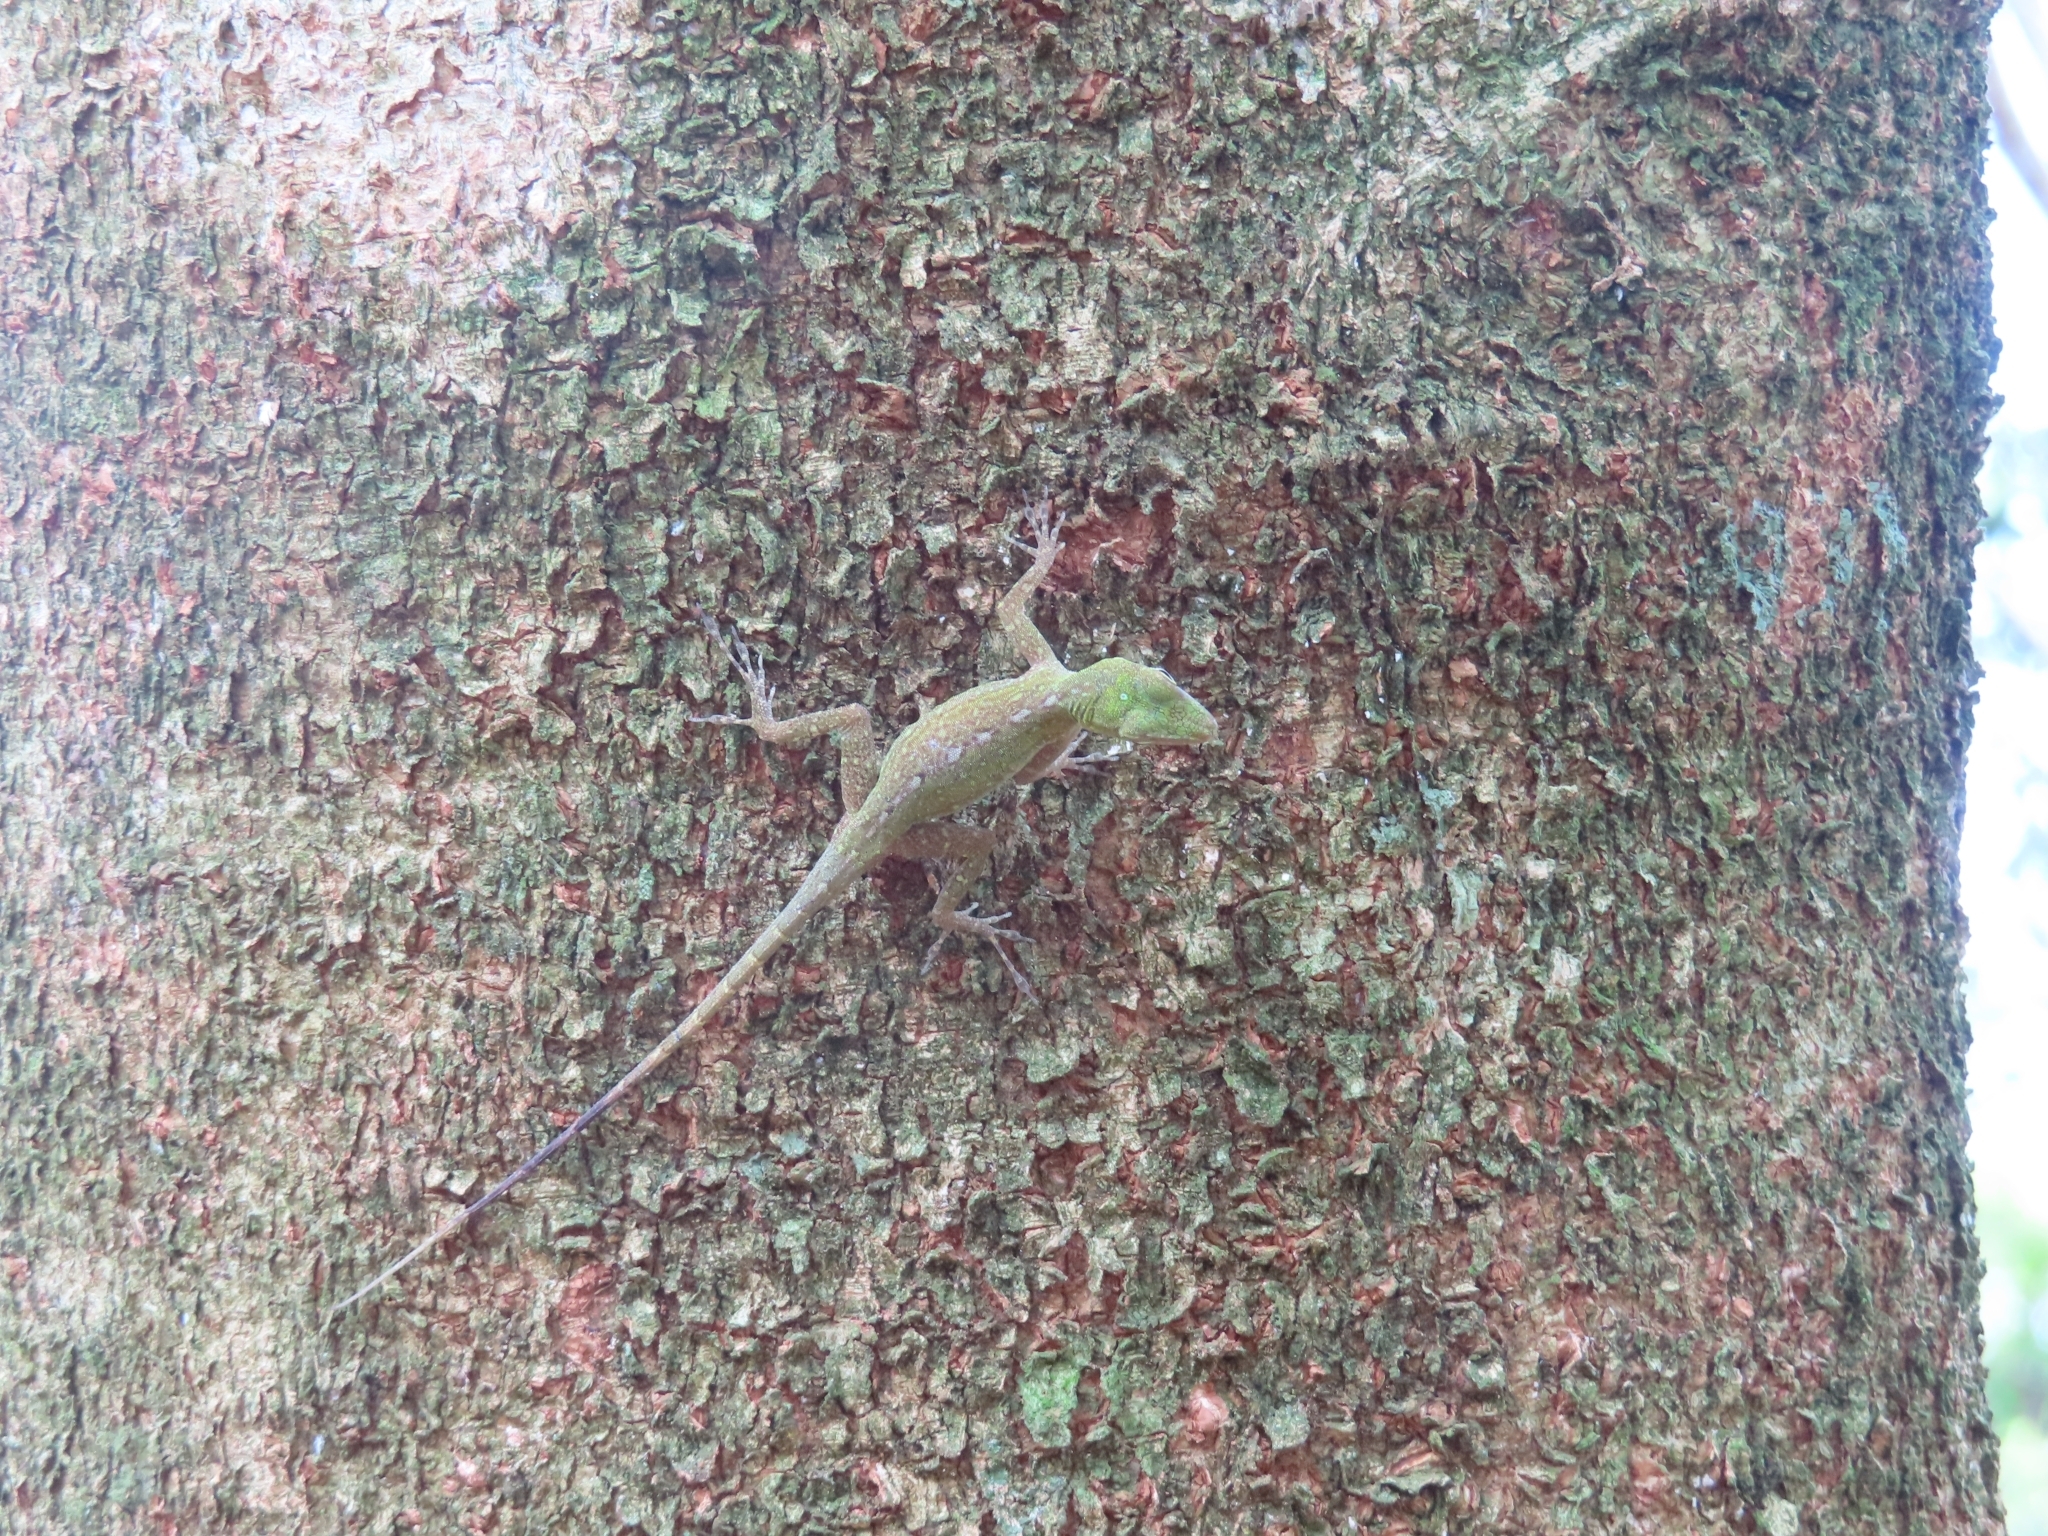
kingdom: Animalia
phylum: Chordata
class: Squamata
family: Dactyloidae
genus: Anolis
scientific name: Anolis evermanni
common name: Emerald anole
